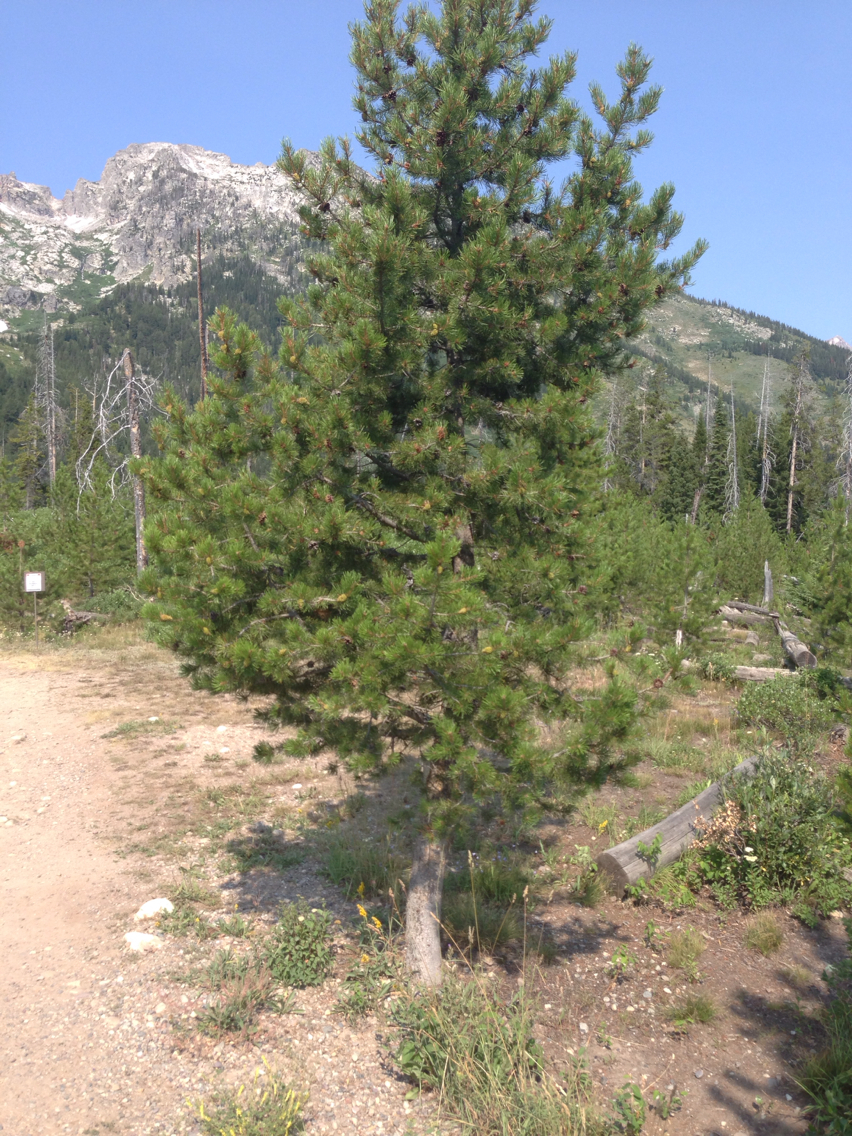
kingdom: Plantae
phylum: Tracheophyta
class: Pinopsida
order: Pinales
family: Pinaceae
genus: Pinus
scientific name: Pinus contorta
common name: Lodgepole pine
